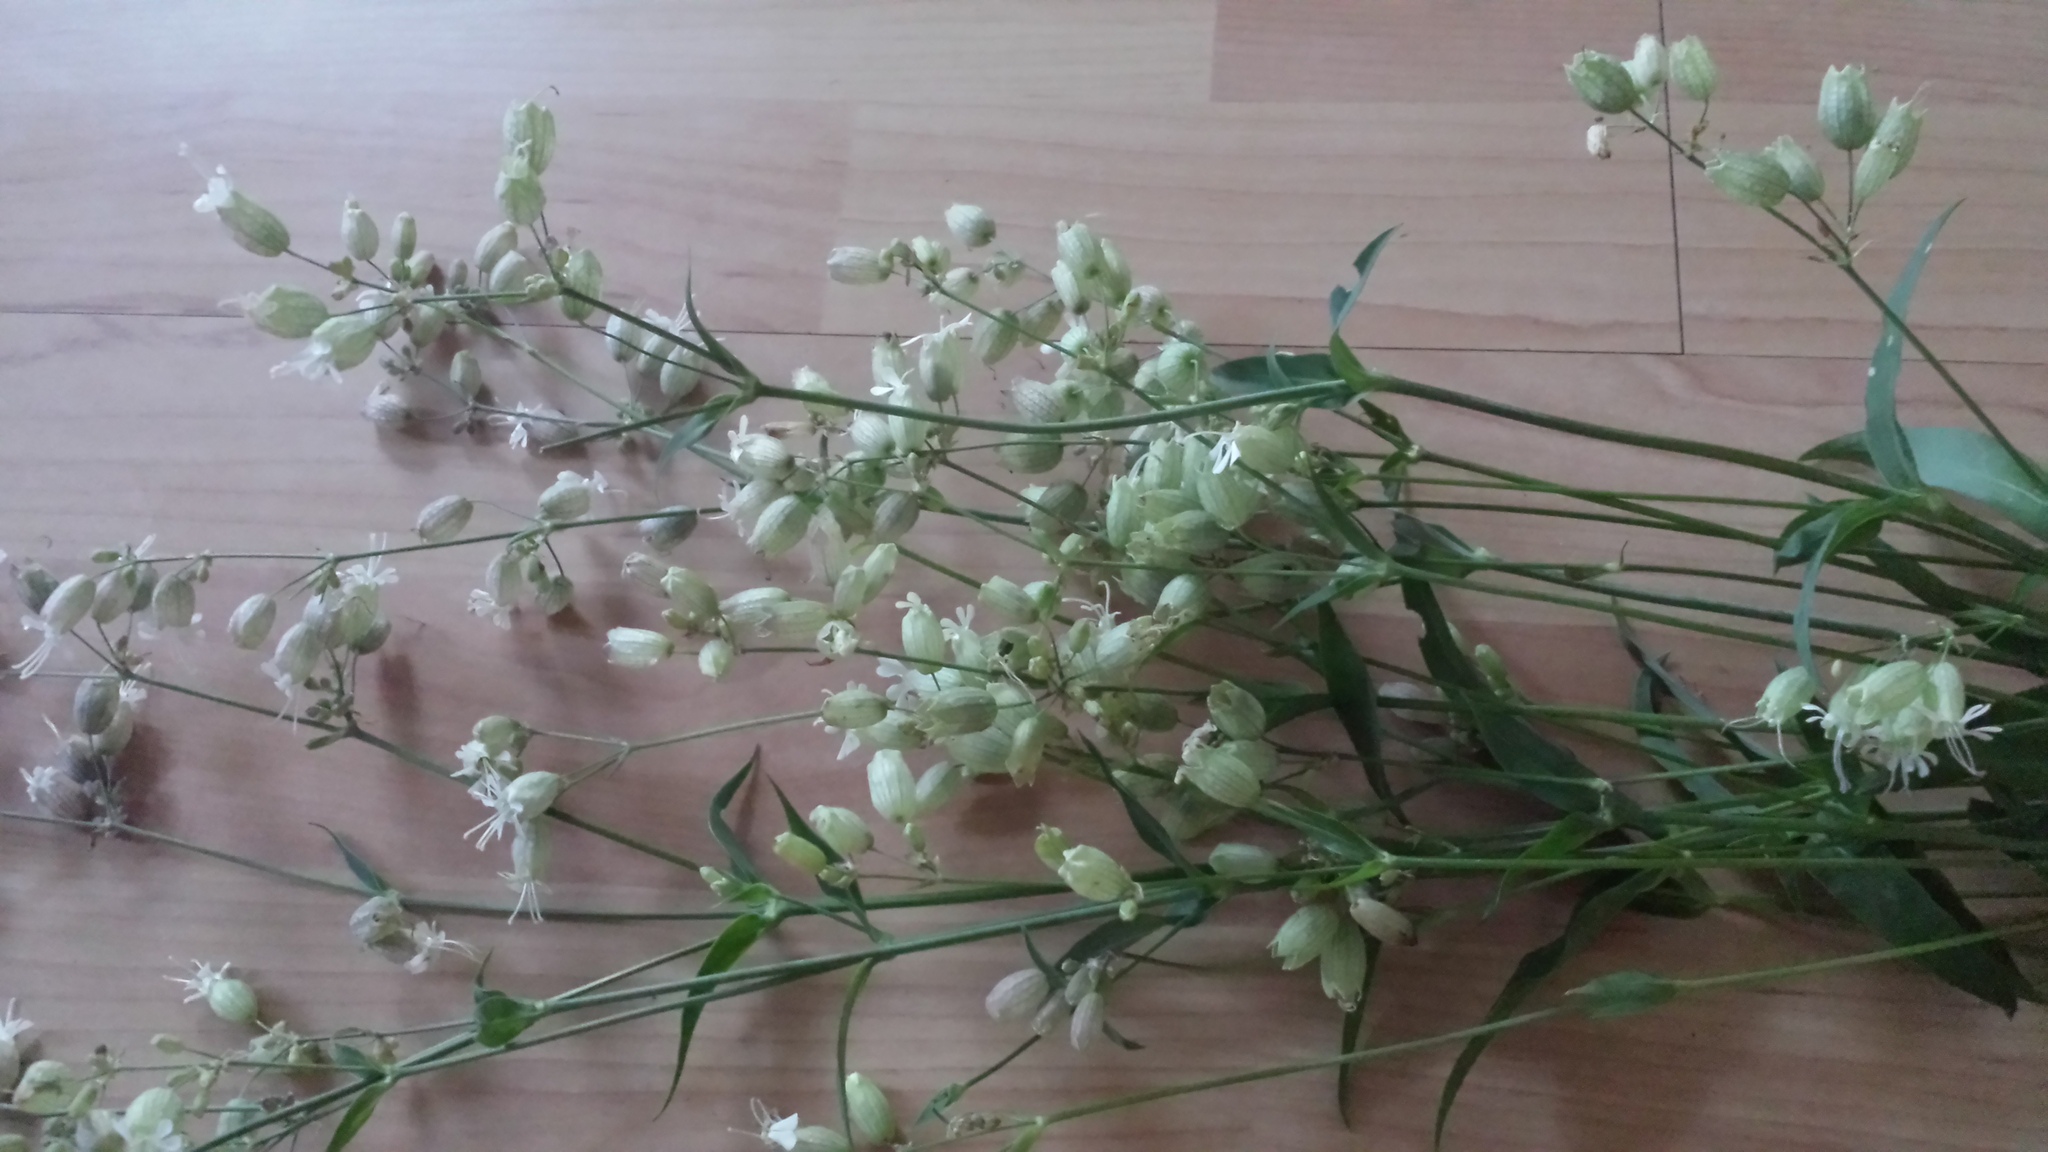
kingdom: Plantae
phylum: Tracheophyta
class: Magnoliopsida
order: Caryophyllales
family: Caryophyllaceae
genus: Silene
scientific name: Silene vulgaris
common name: Bladder campion
